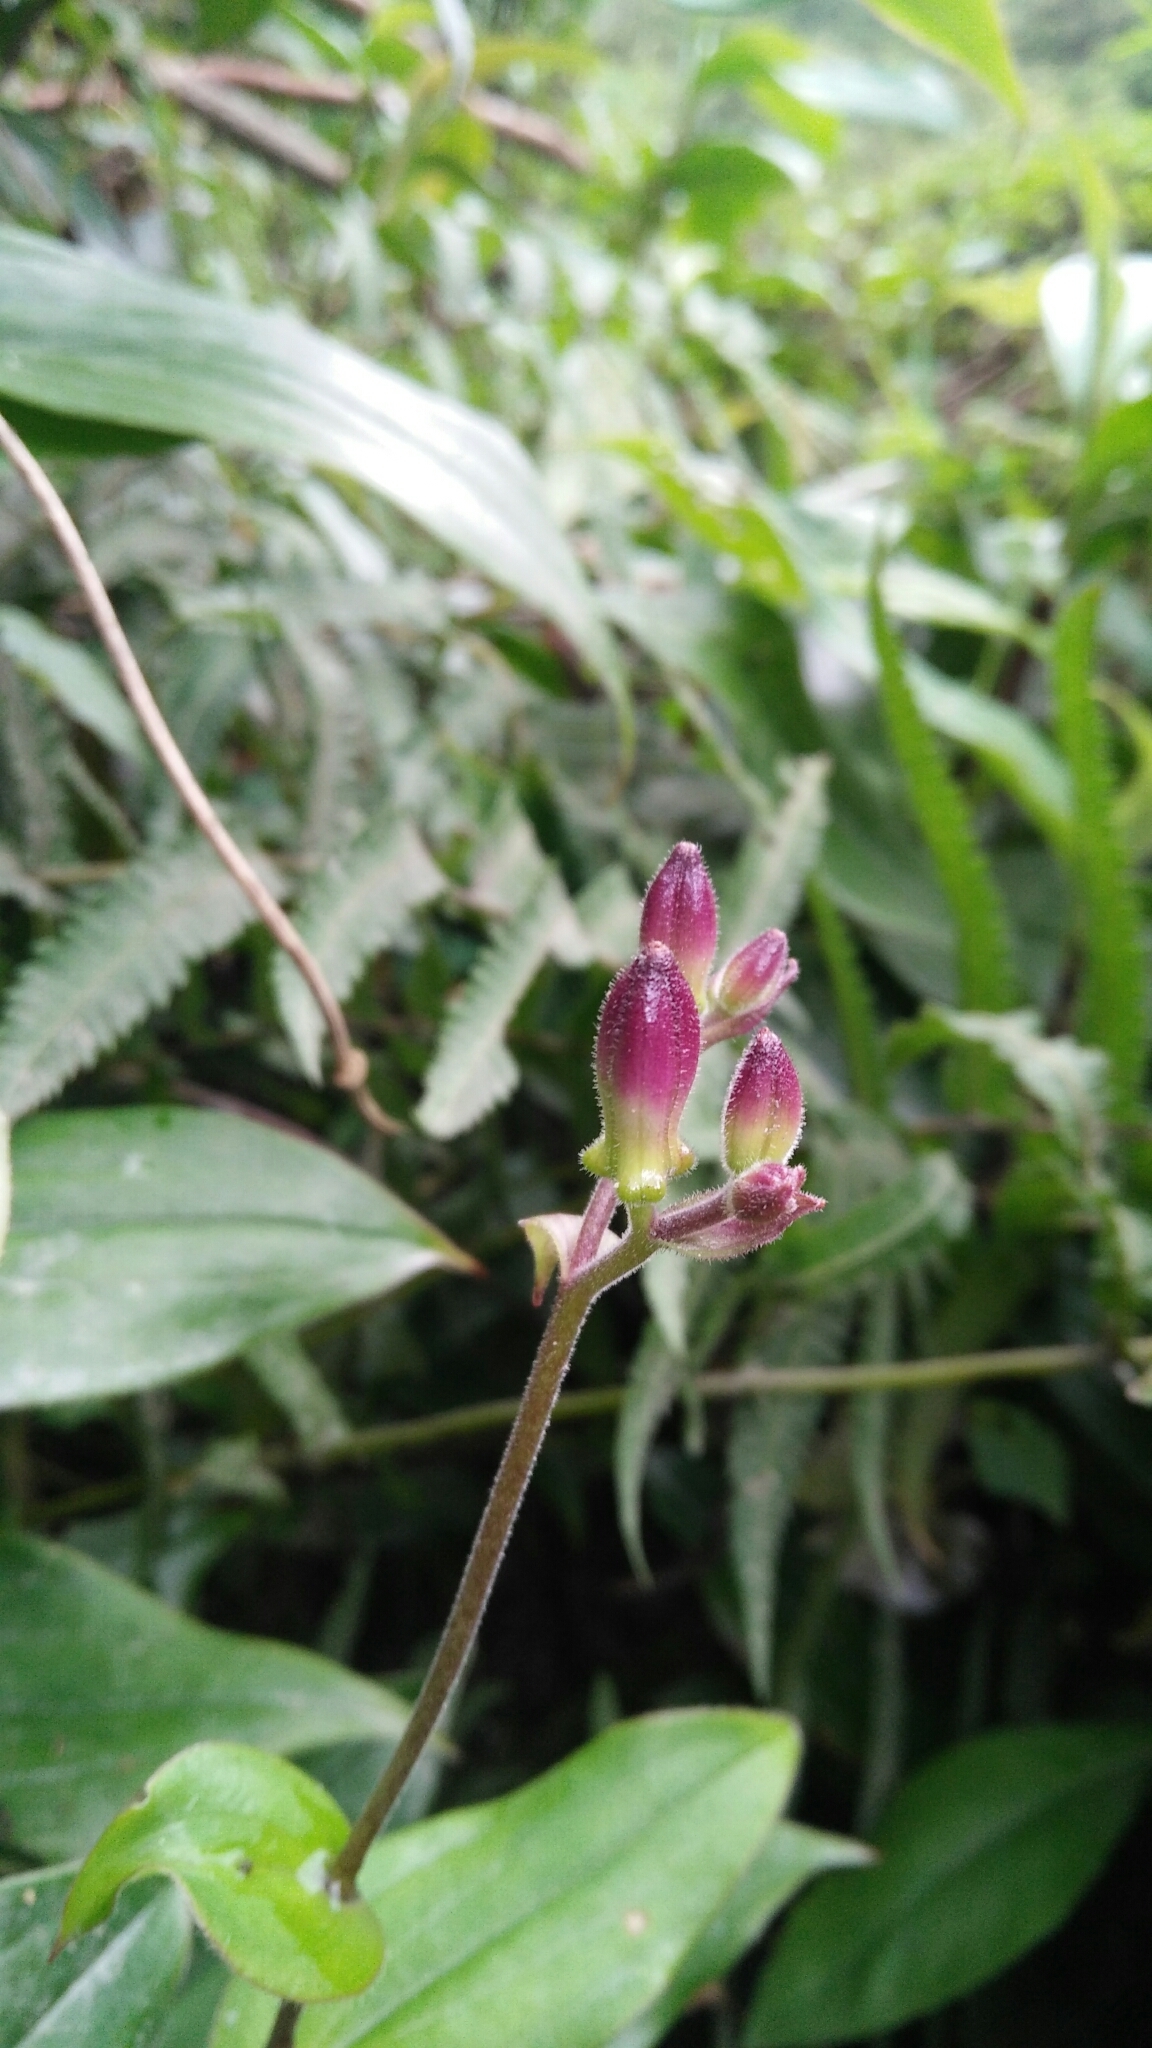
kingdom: Plantae
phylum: Tracheophyta
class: Liliopsida
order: Liliales
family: Liliaceae
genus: Tricyrtis
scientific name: Tricyrtis formosana
